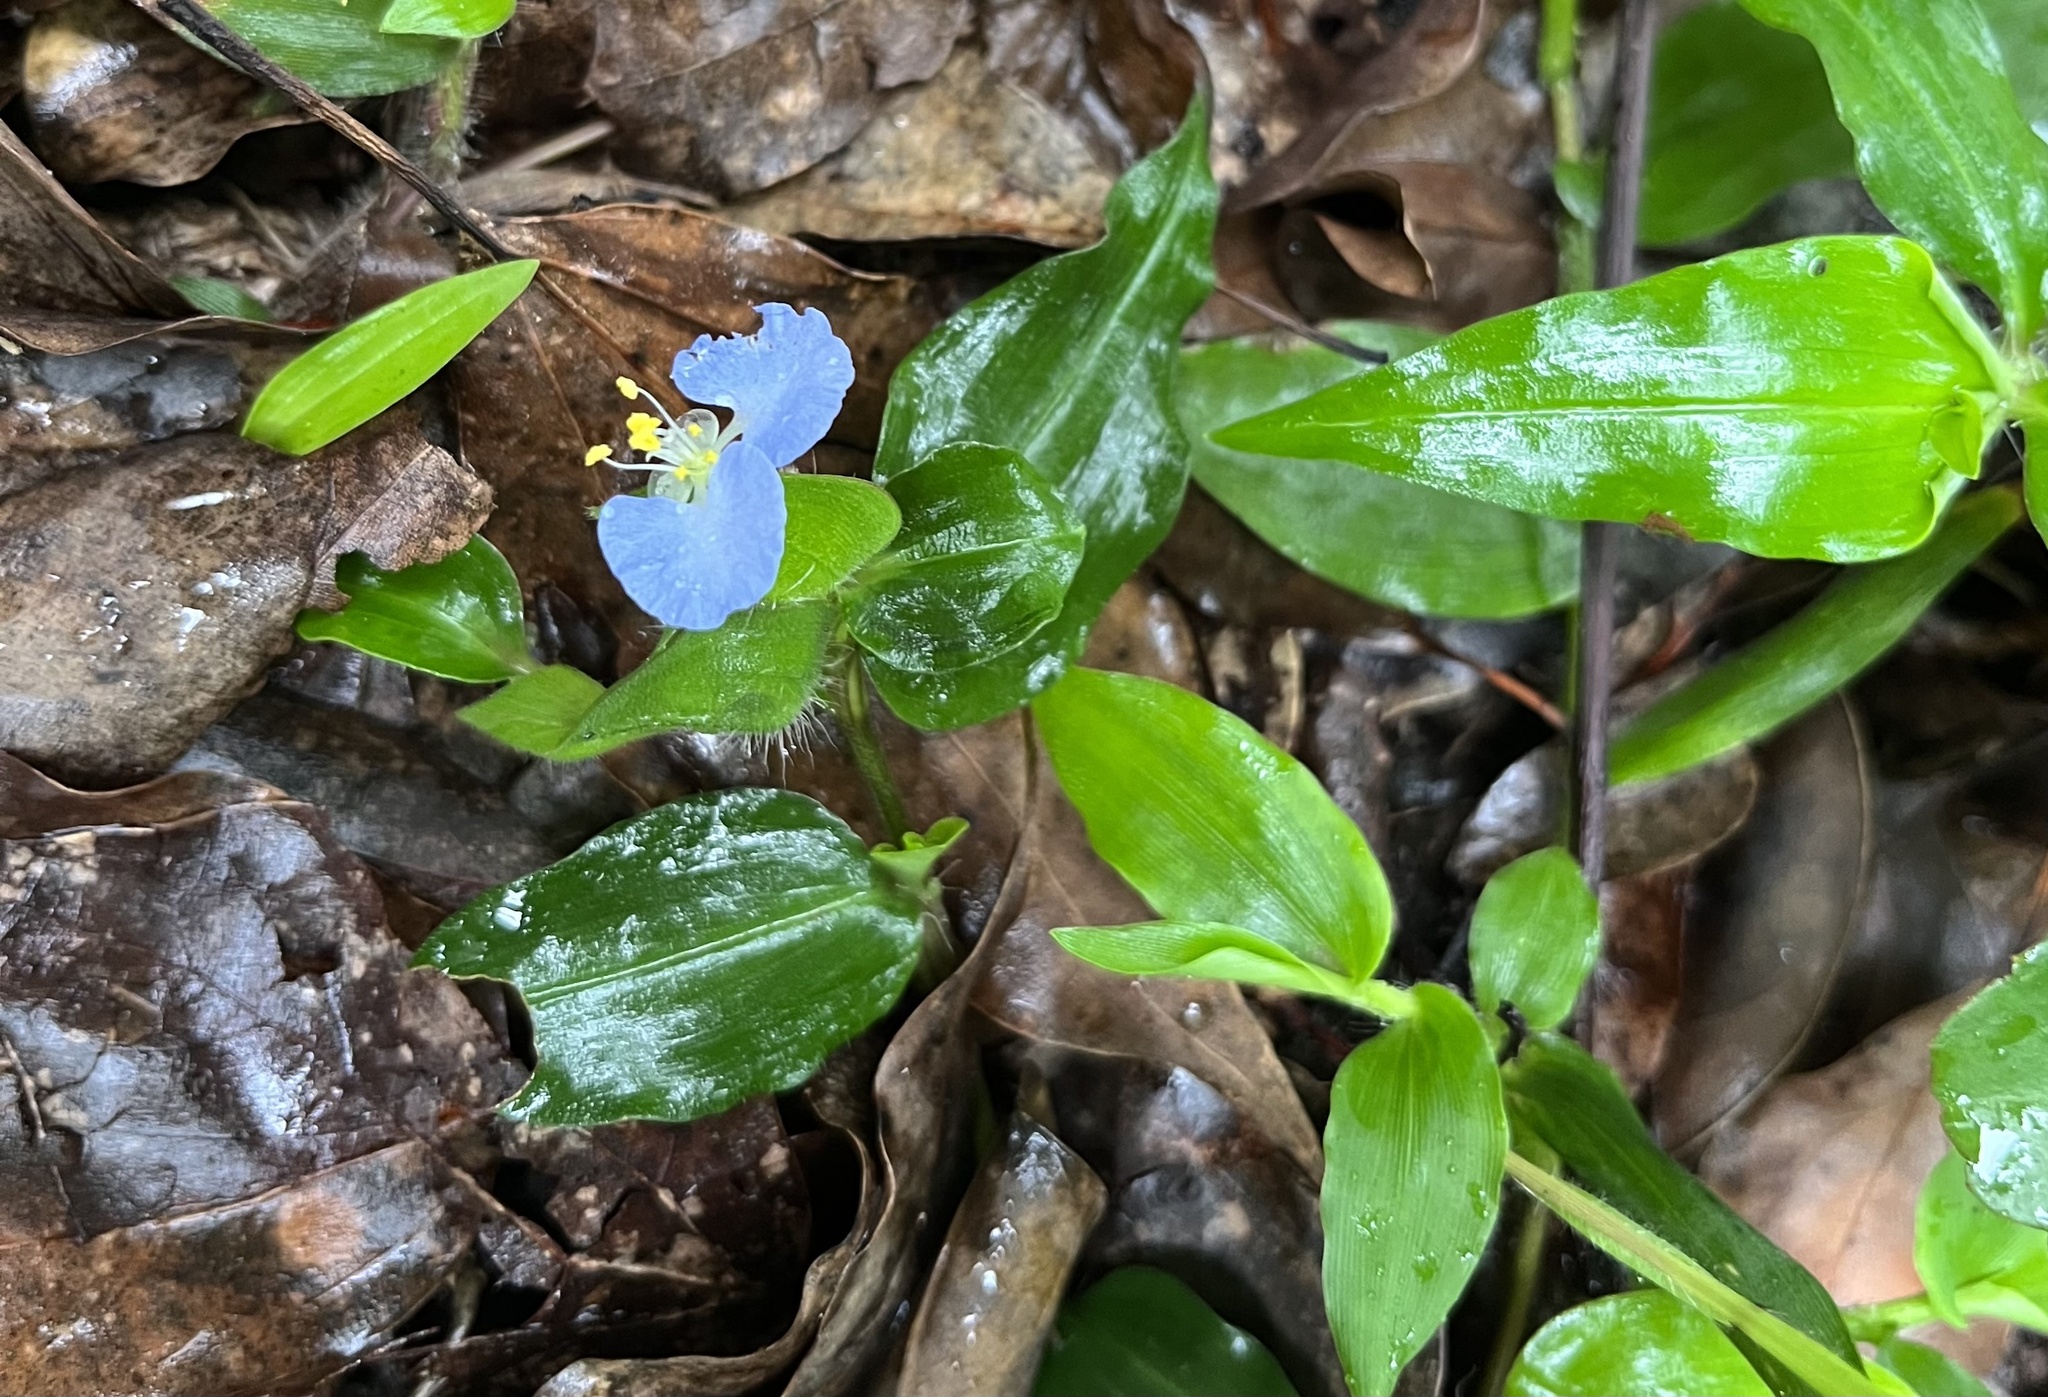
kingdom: Plantae
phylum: Tracheophyta
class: Liliopsida
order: Commelinales
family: Commelinaceae
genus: Commelina
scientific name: Commelina auriculata
